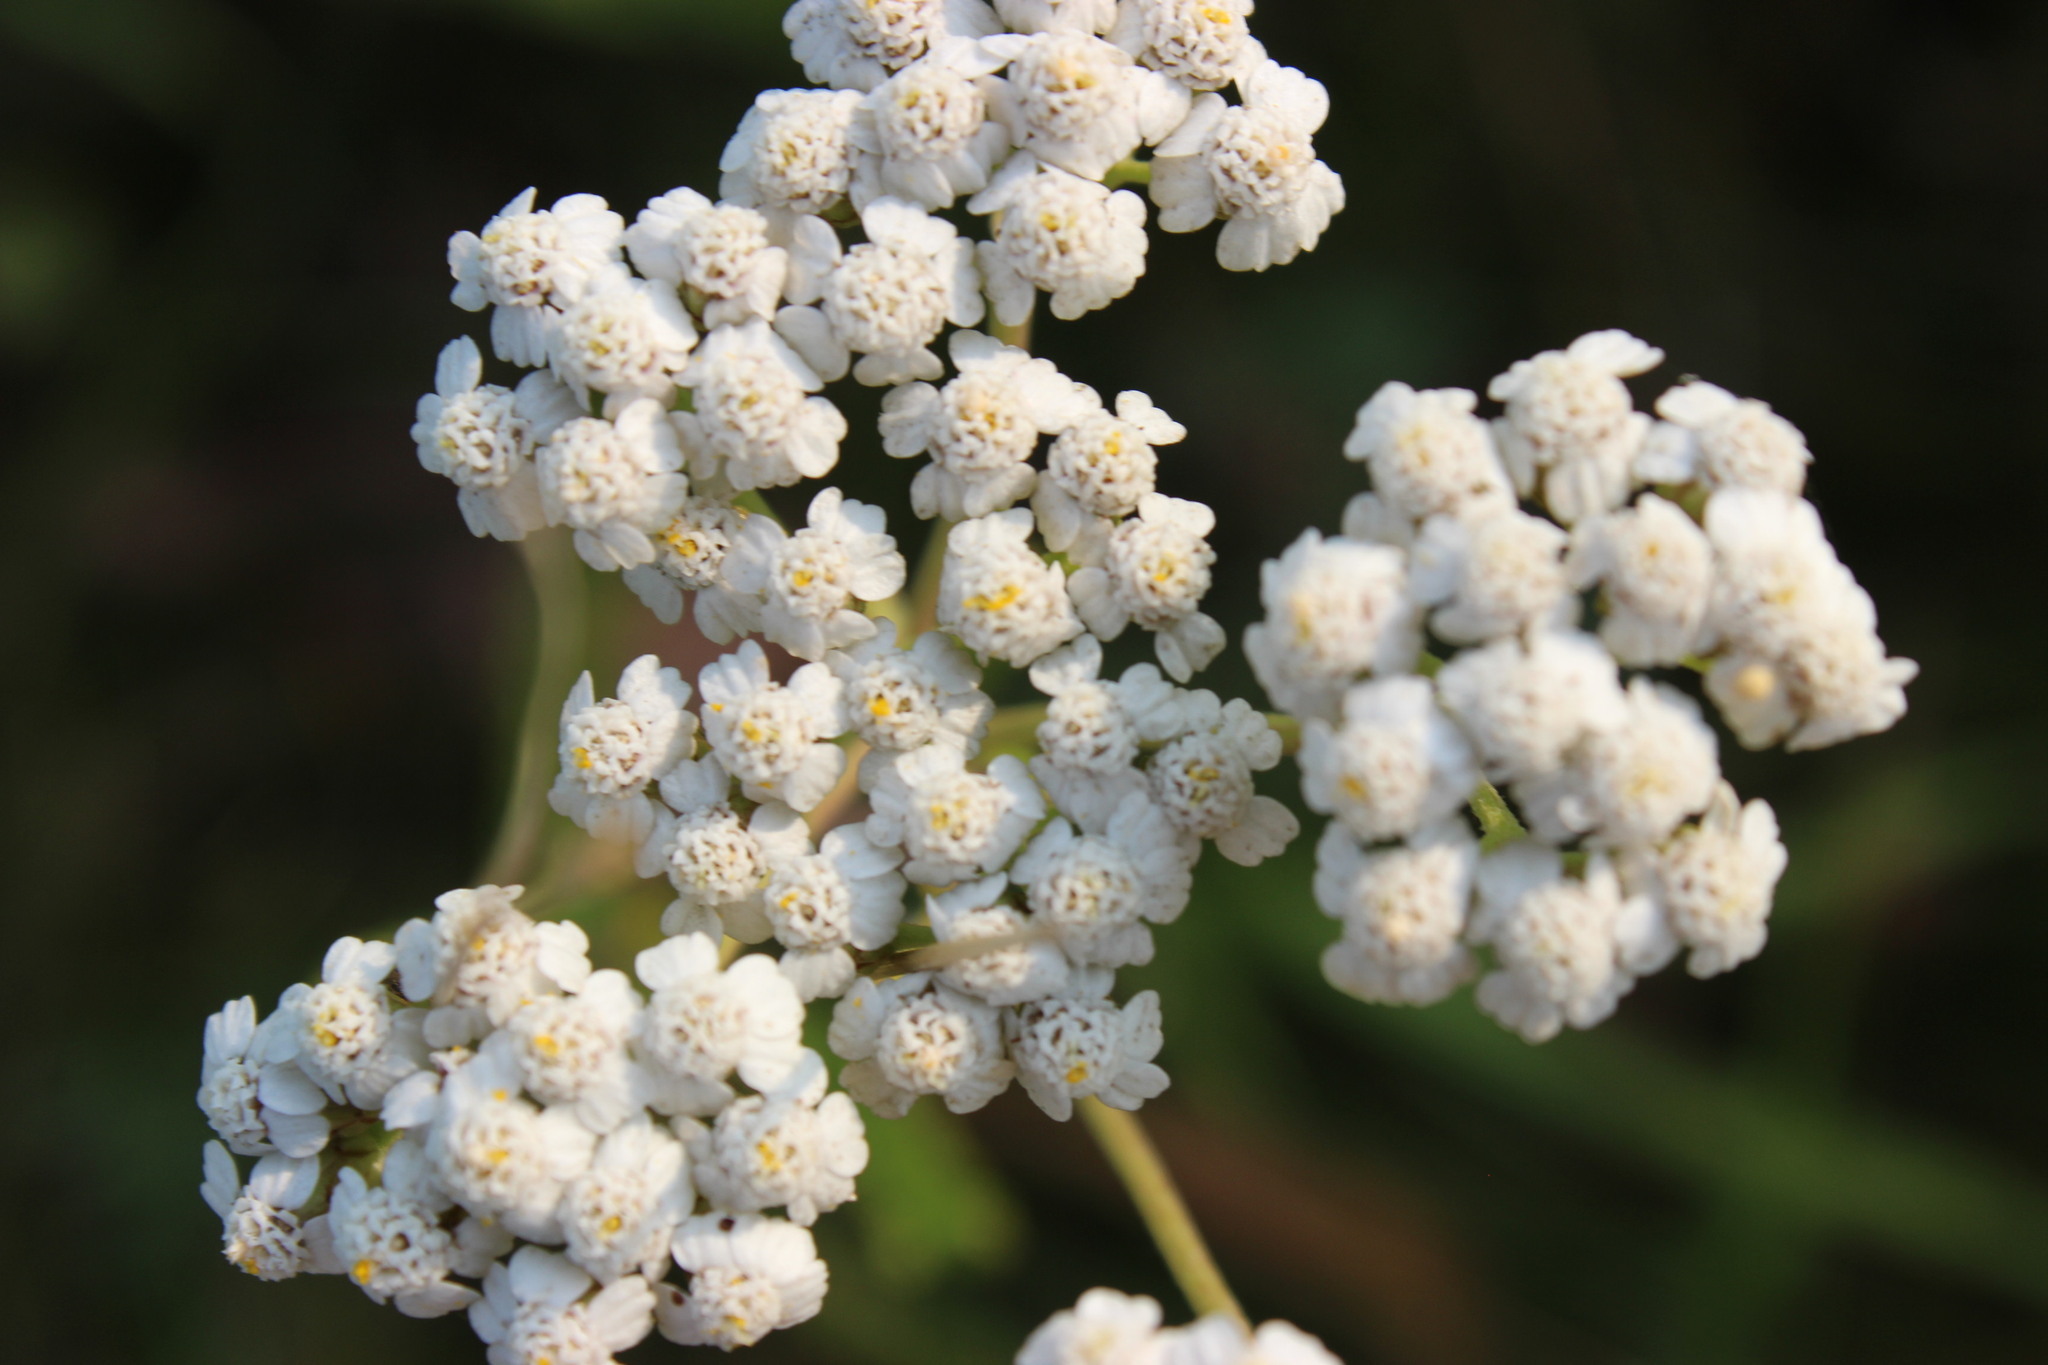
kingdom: Plantae
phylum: Tracheophyta
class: Magnoliopsida
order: Asterales
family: Asteraceae
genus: Achillea
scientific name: Achillea millefolium
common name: Yarrow
